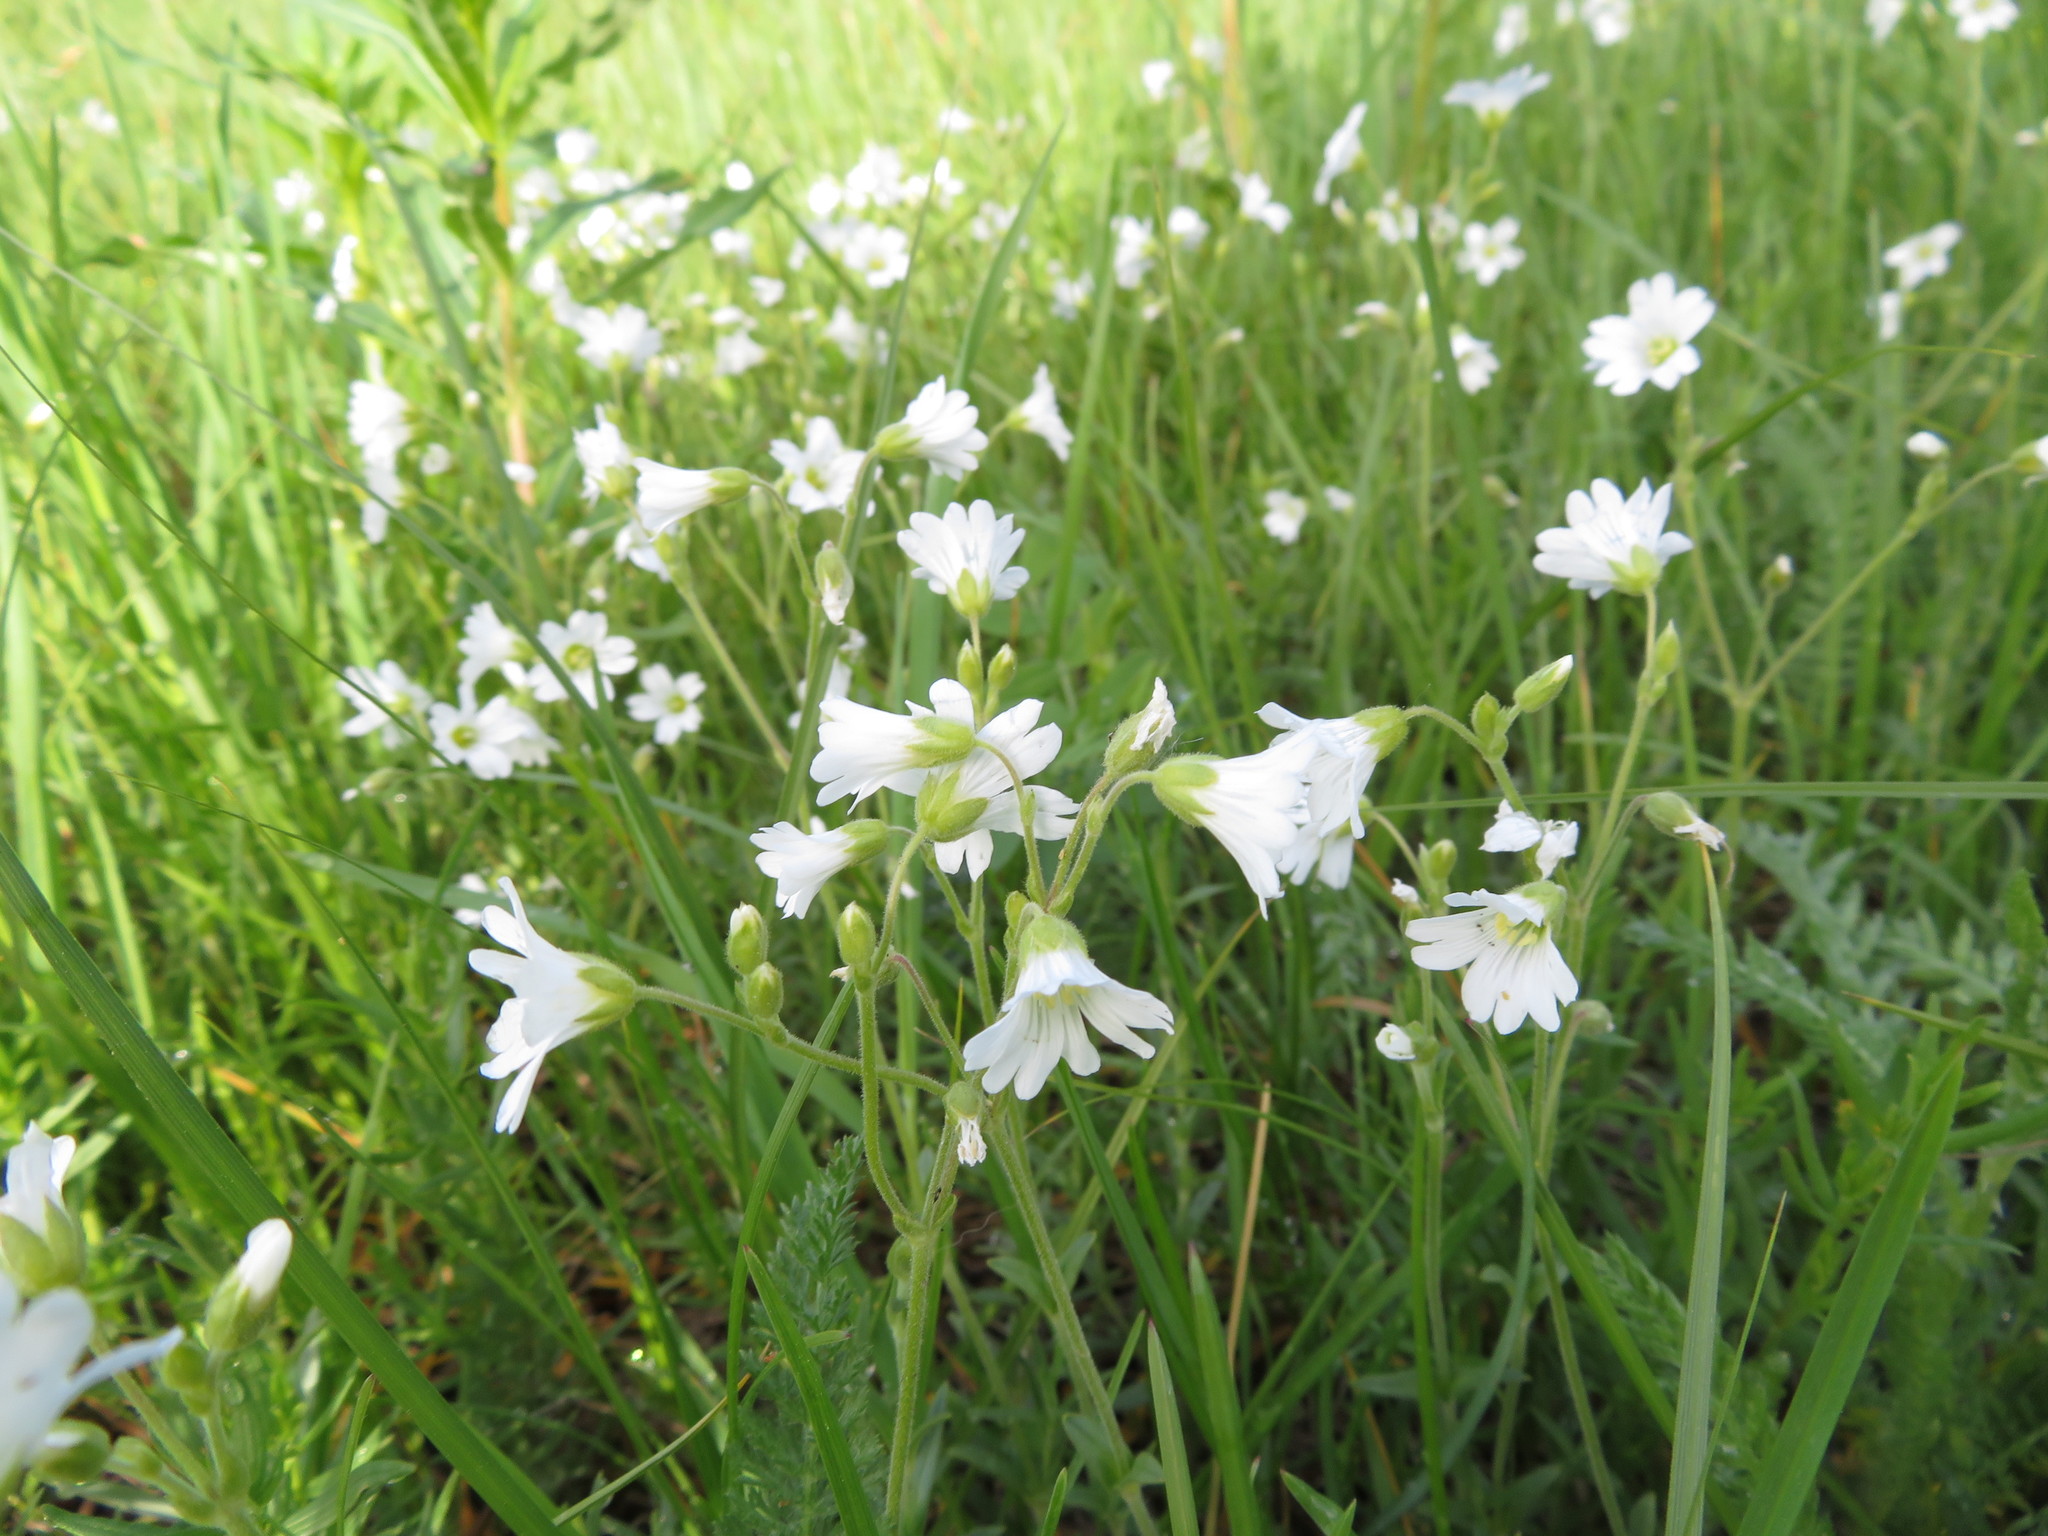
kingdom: Plantae
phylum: Tracheophyta
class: Magnoliopsida
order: Caryophyllales
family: Caryophyllaceae
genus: Cerastium
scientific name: Cerastium arvense
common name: Field mouse-ear
